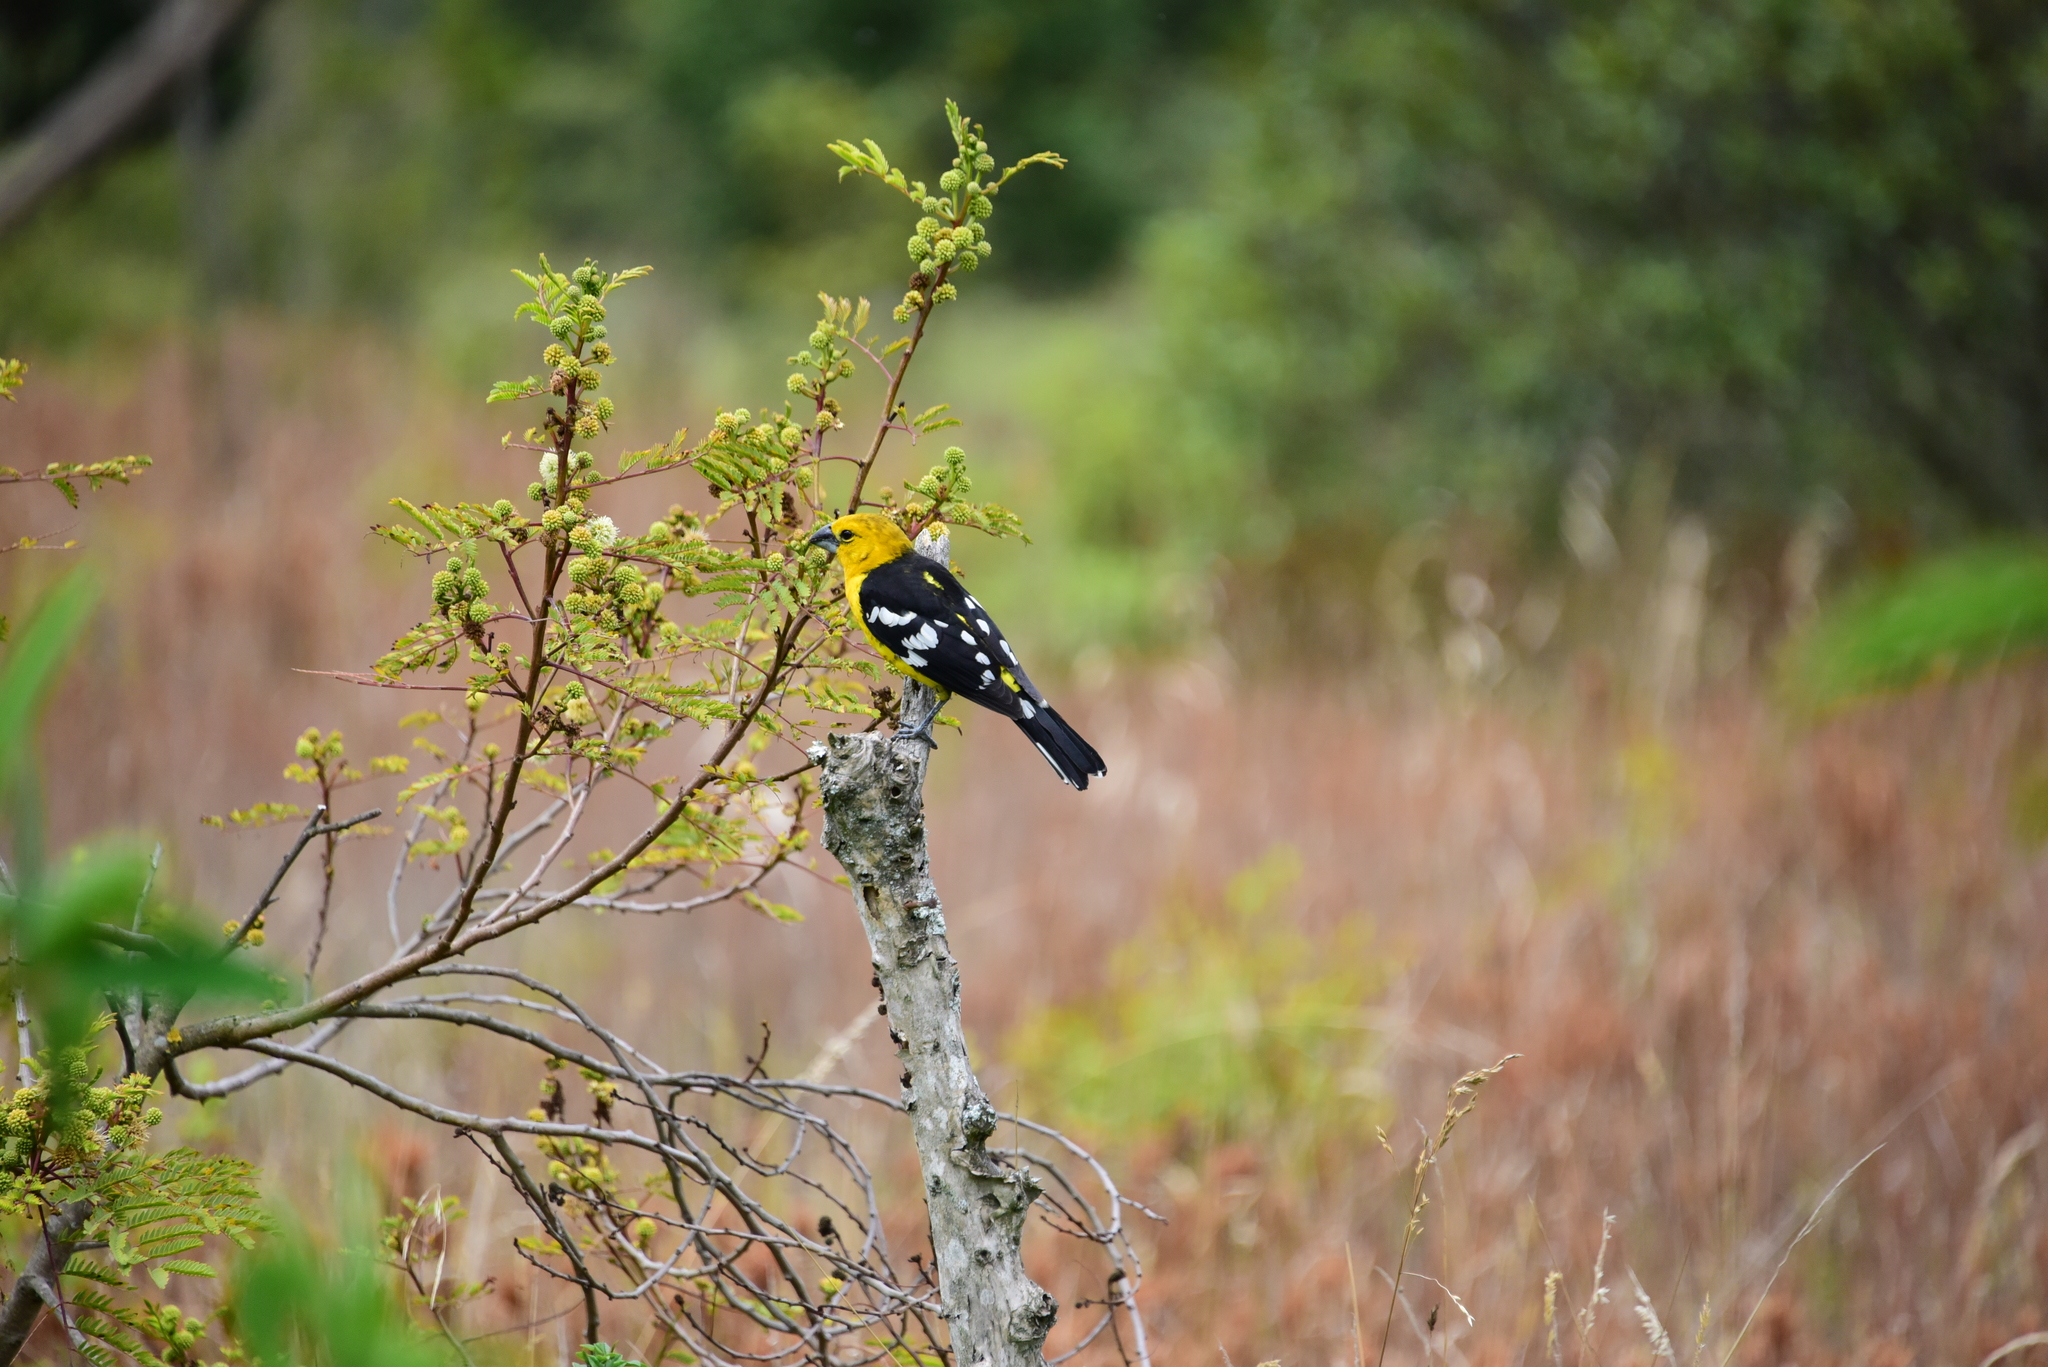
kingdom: Animalia
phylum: Chordata
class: Aves
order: Passeriformes
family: Cardinalidae
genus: Pheucticus
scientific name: Pheucticus chrysogaster
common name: Golden grosbeak
